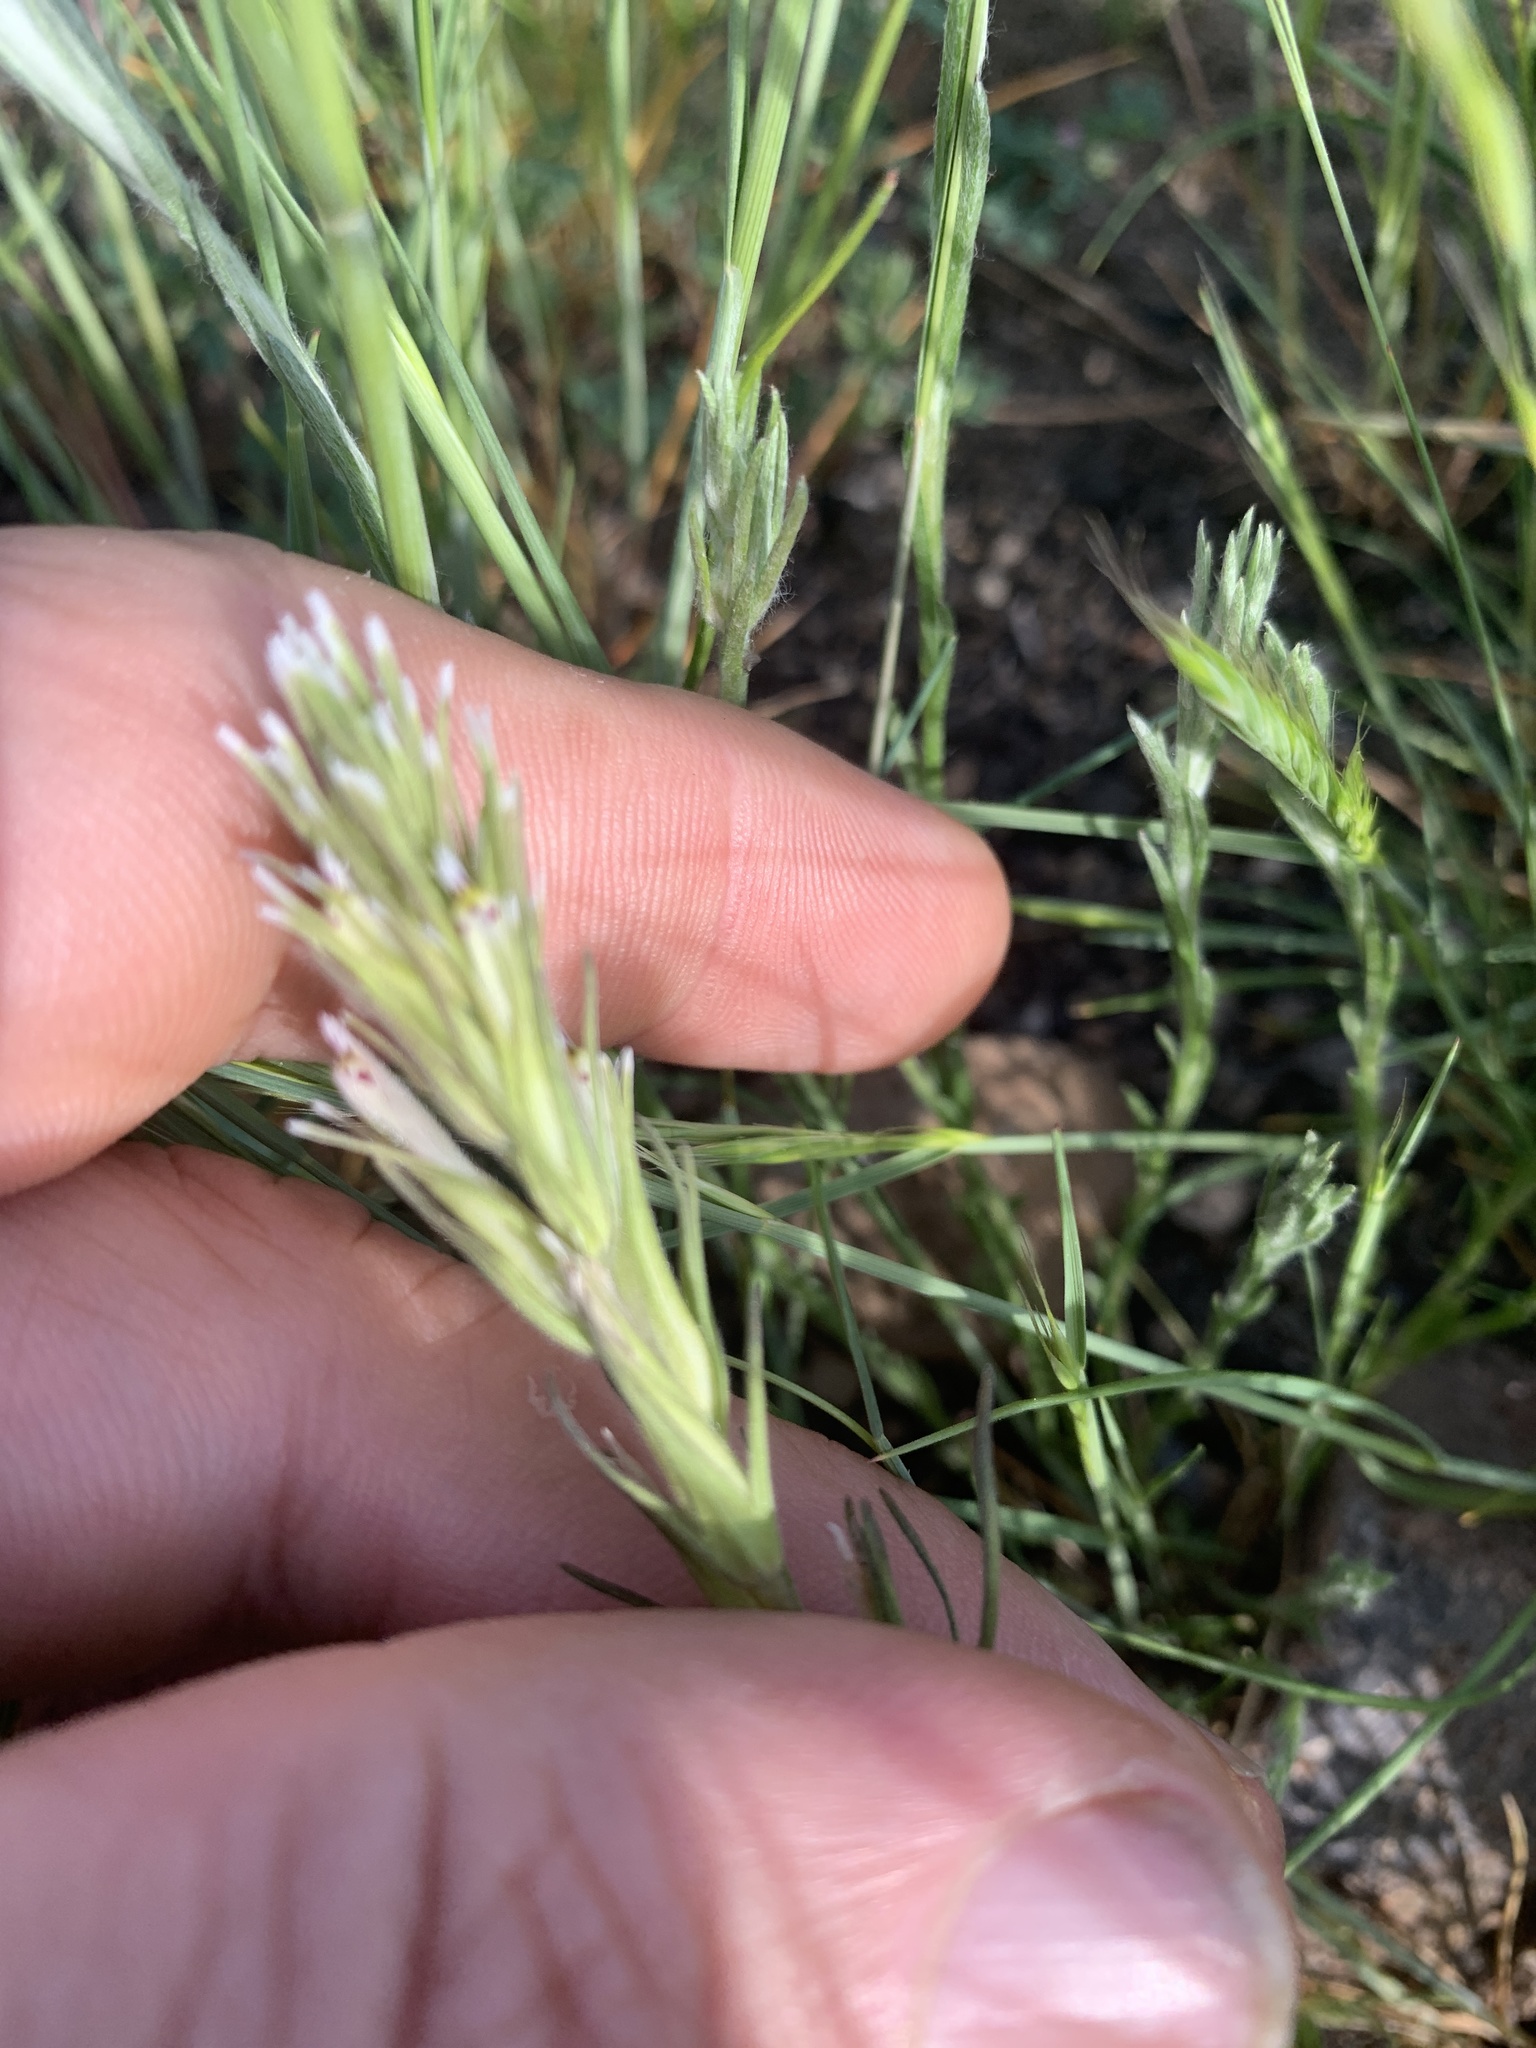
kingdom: Plantae
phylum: Tracheophyta
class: Magnoliopsida
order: Lamiales
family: Orobanchaceae
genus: Castilleja
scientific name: Castilleja attenuata
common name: Valley tassels
